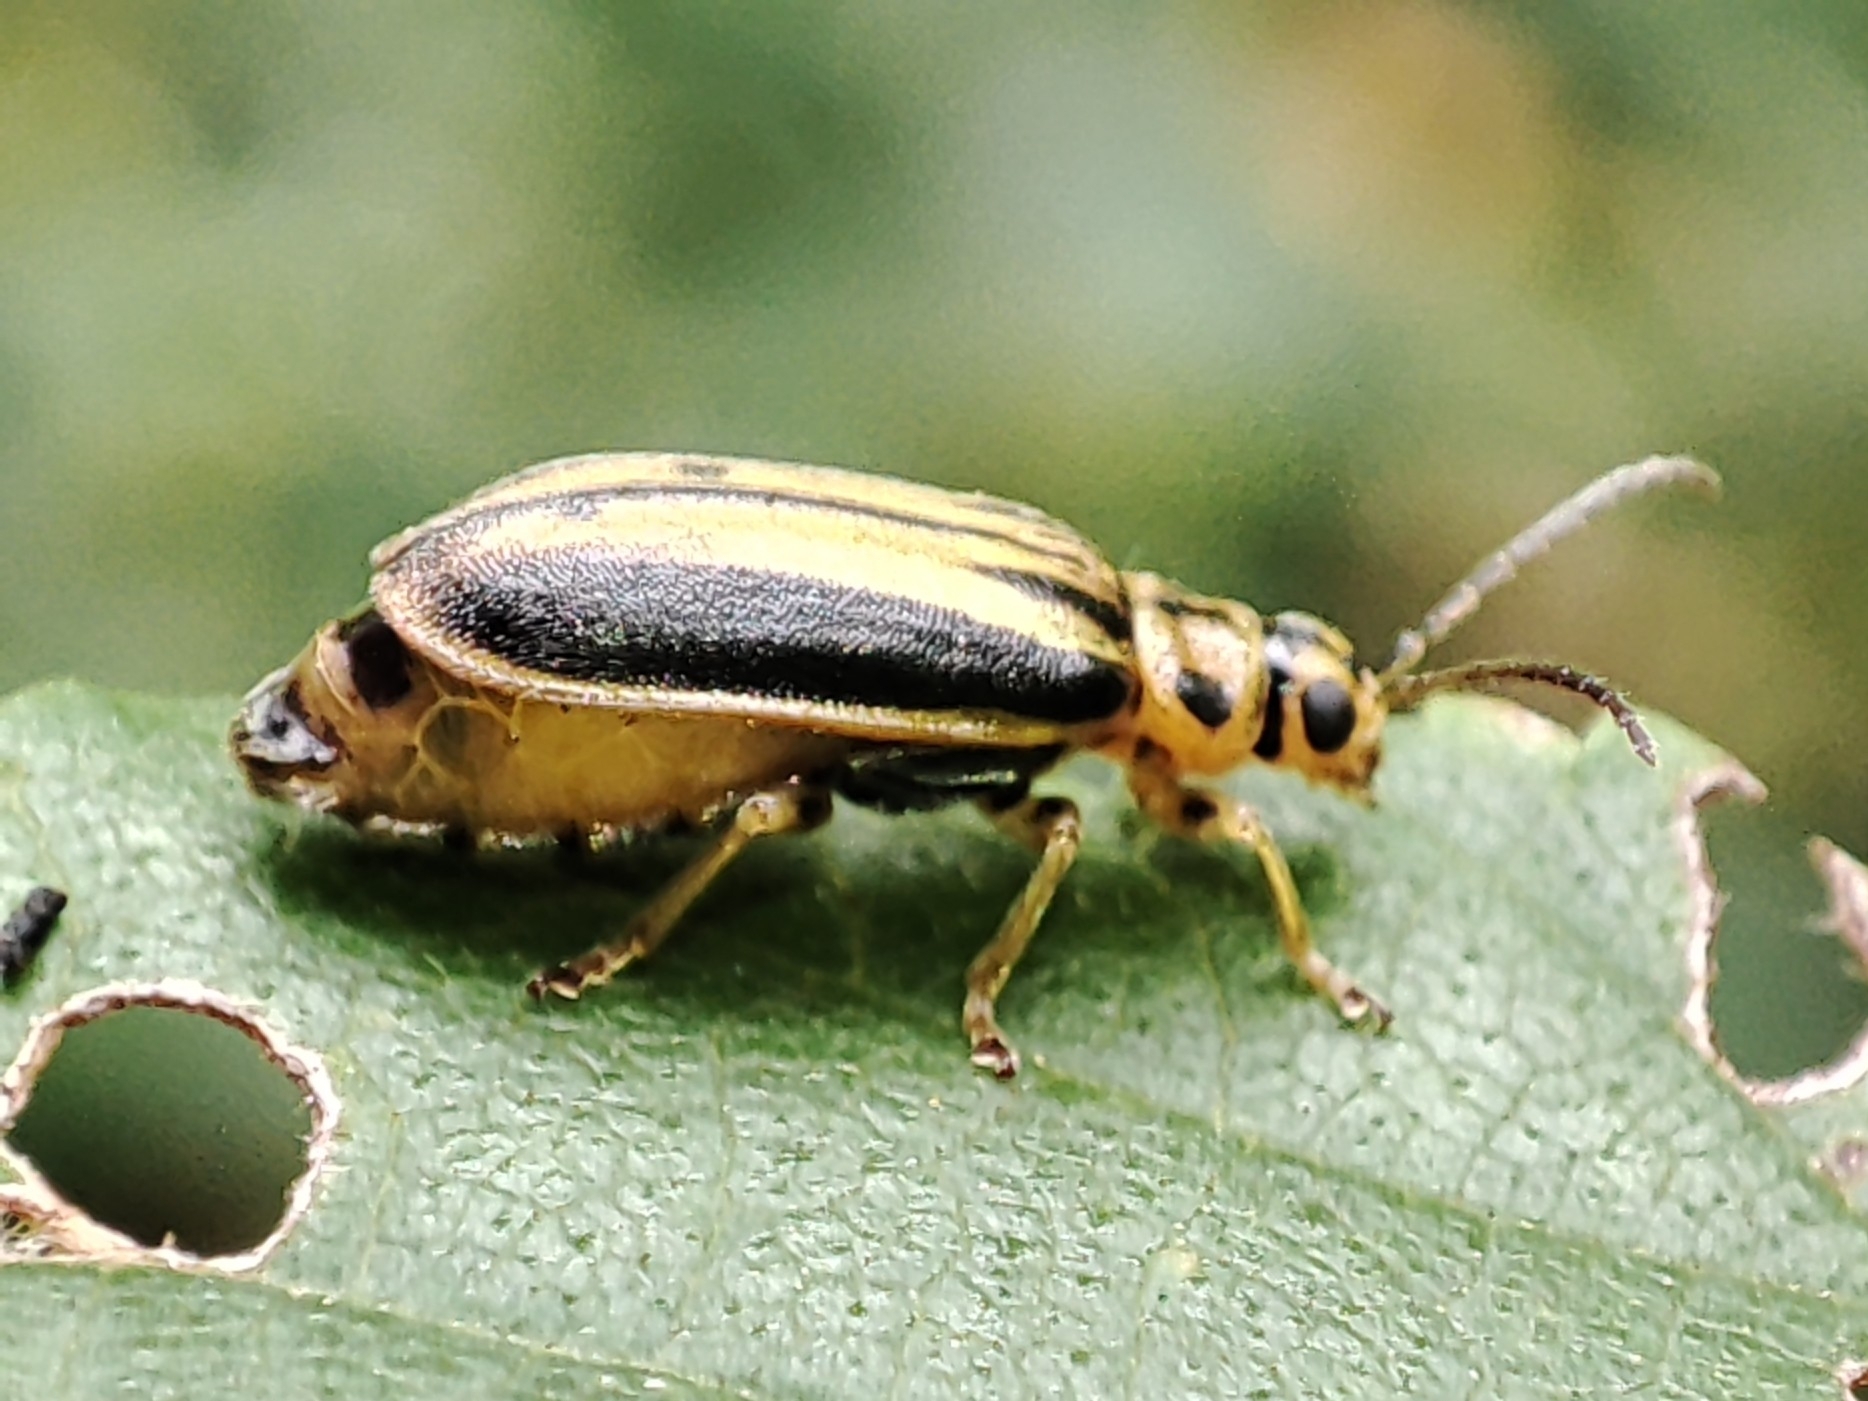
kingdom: Animalia
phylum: Arthropoda
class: Insecta
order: Coleoptera
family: Chrysomelidae
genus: Xanthogaleruca
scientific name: Xanthogaleruca luteola
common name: Elm leaf beetle
